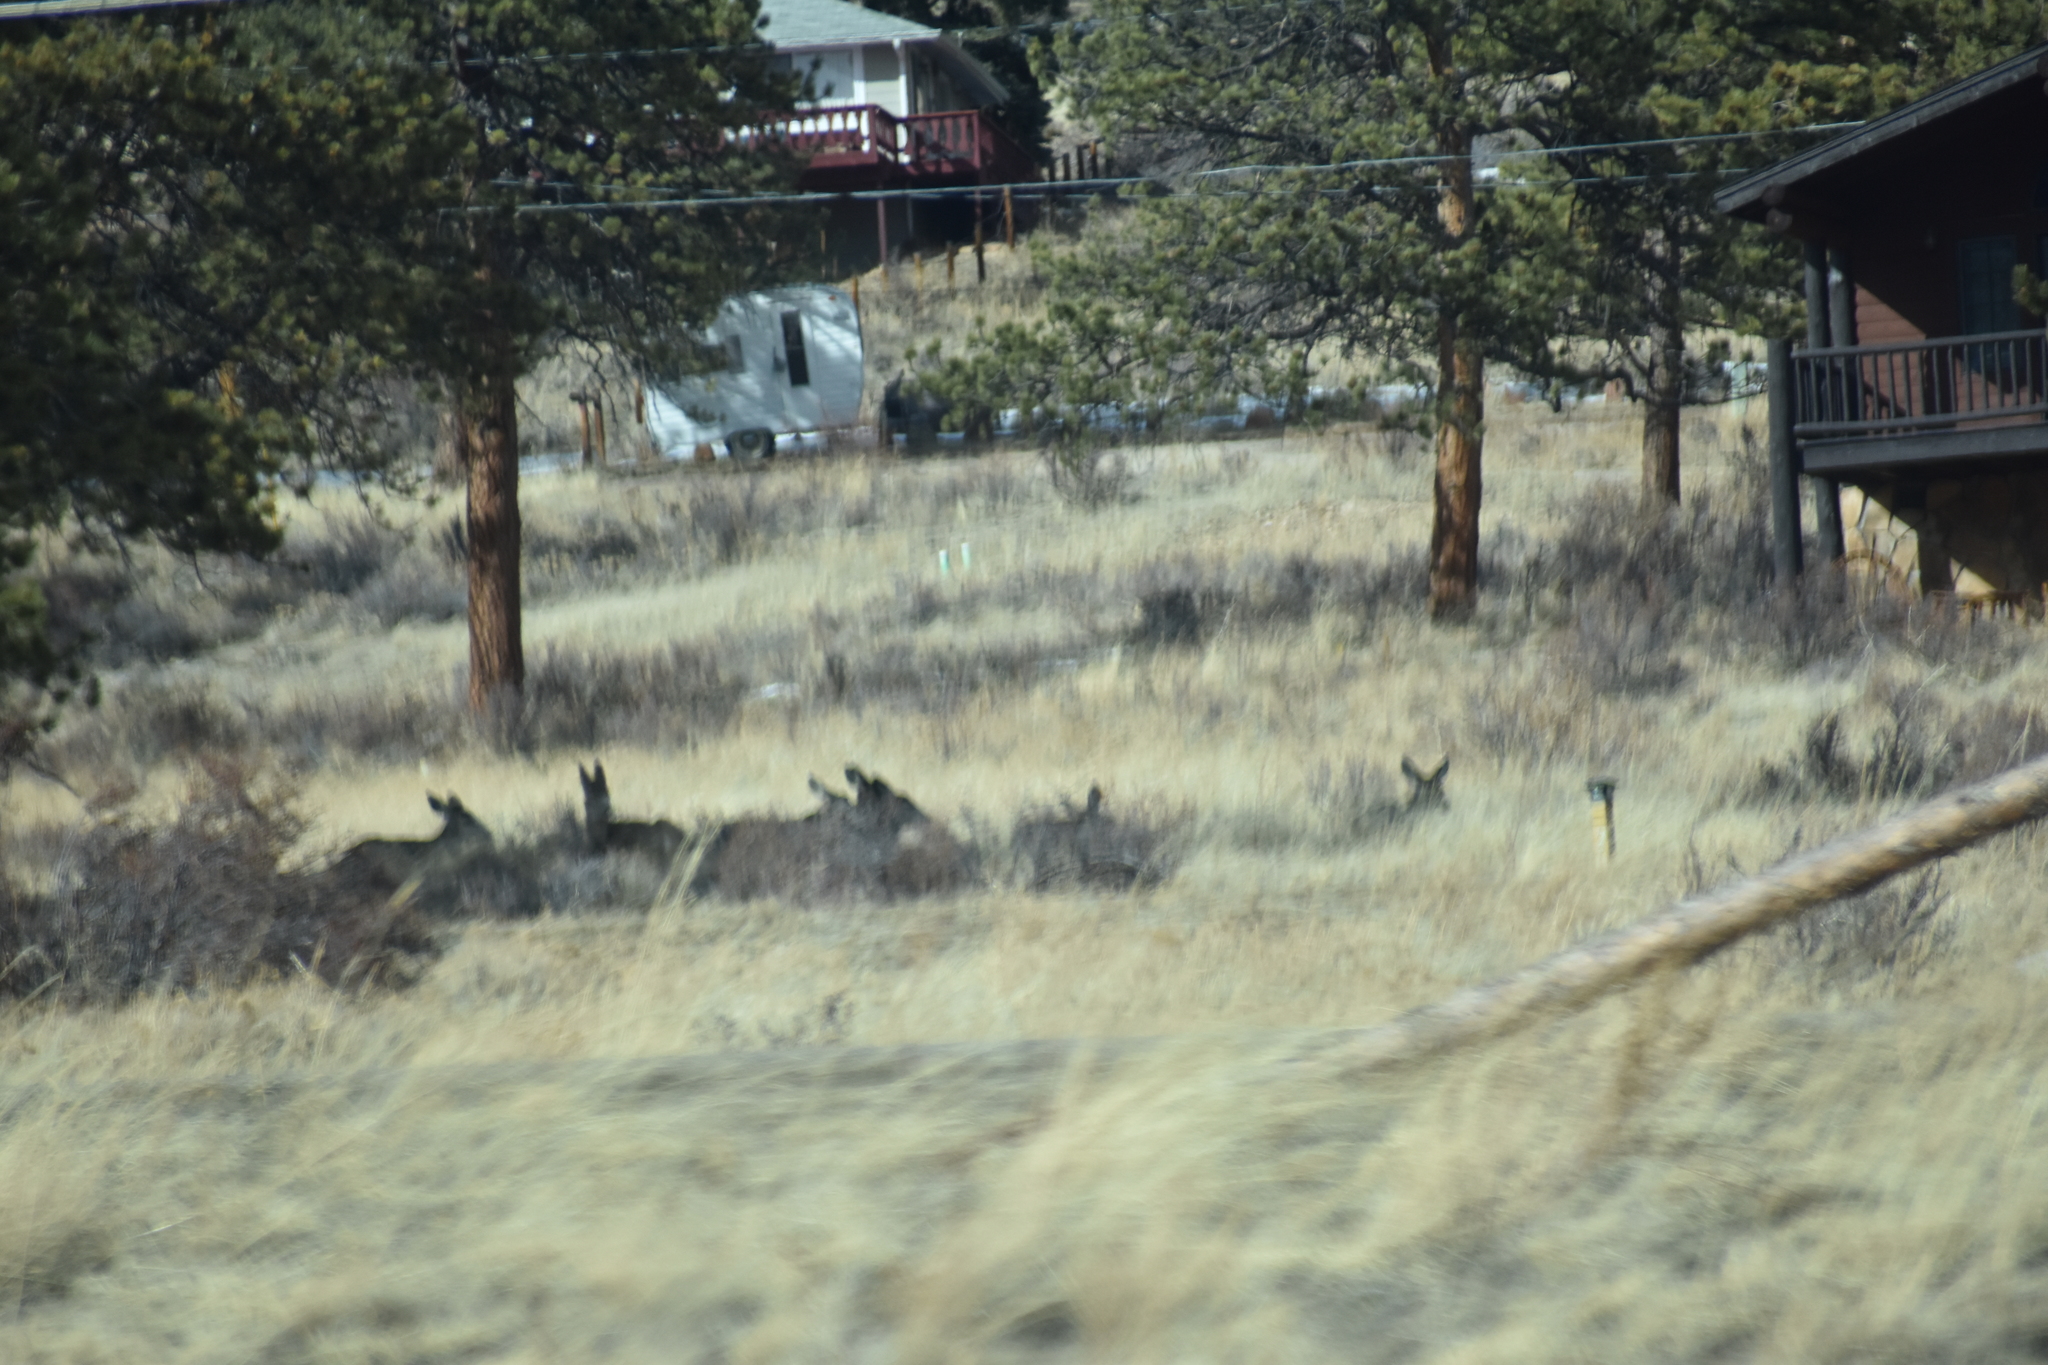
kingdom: Animalia
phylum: Chordata
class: Mammalia
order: Artiodactyla
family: Cervidae
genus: Odocoileus
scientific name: Odocoileus hemionus
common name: Mule deer
